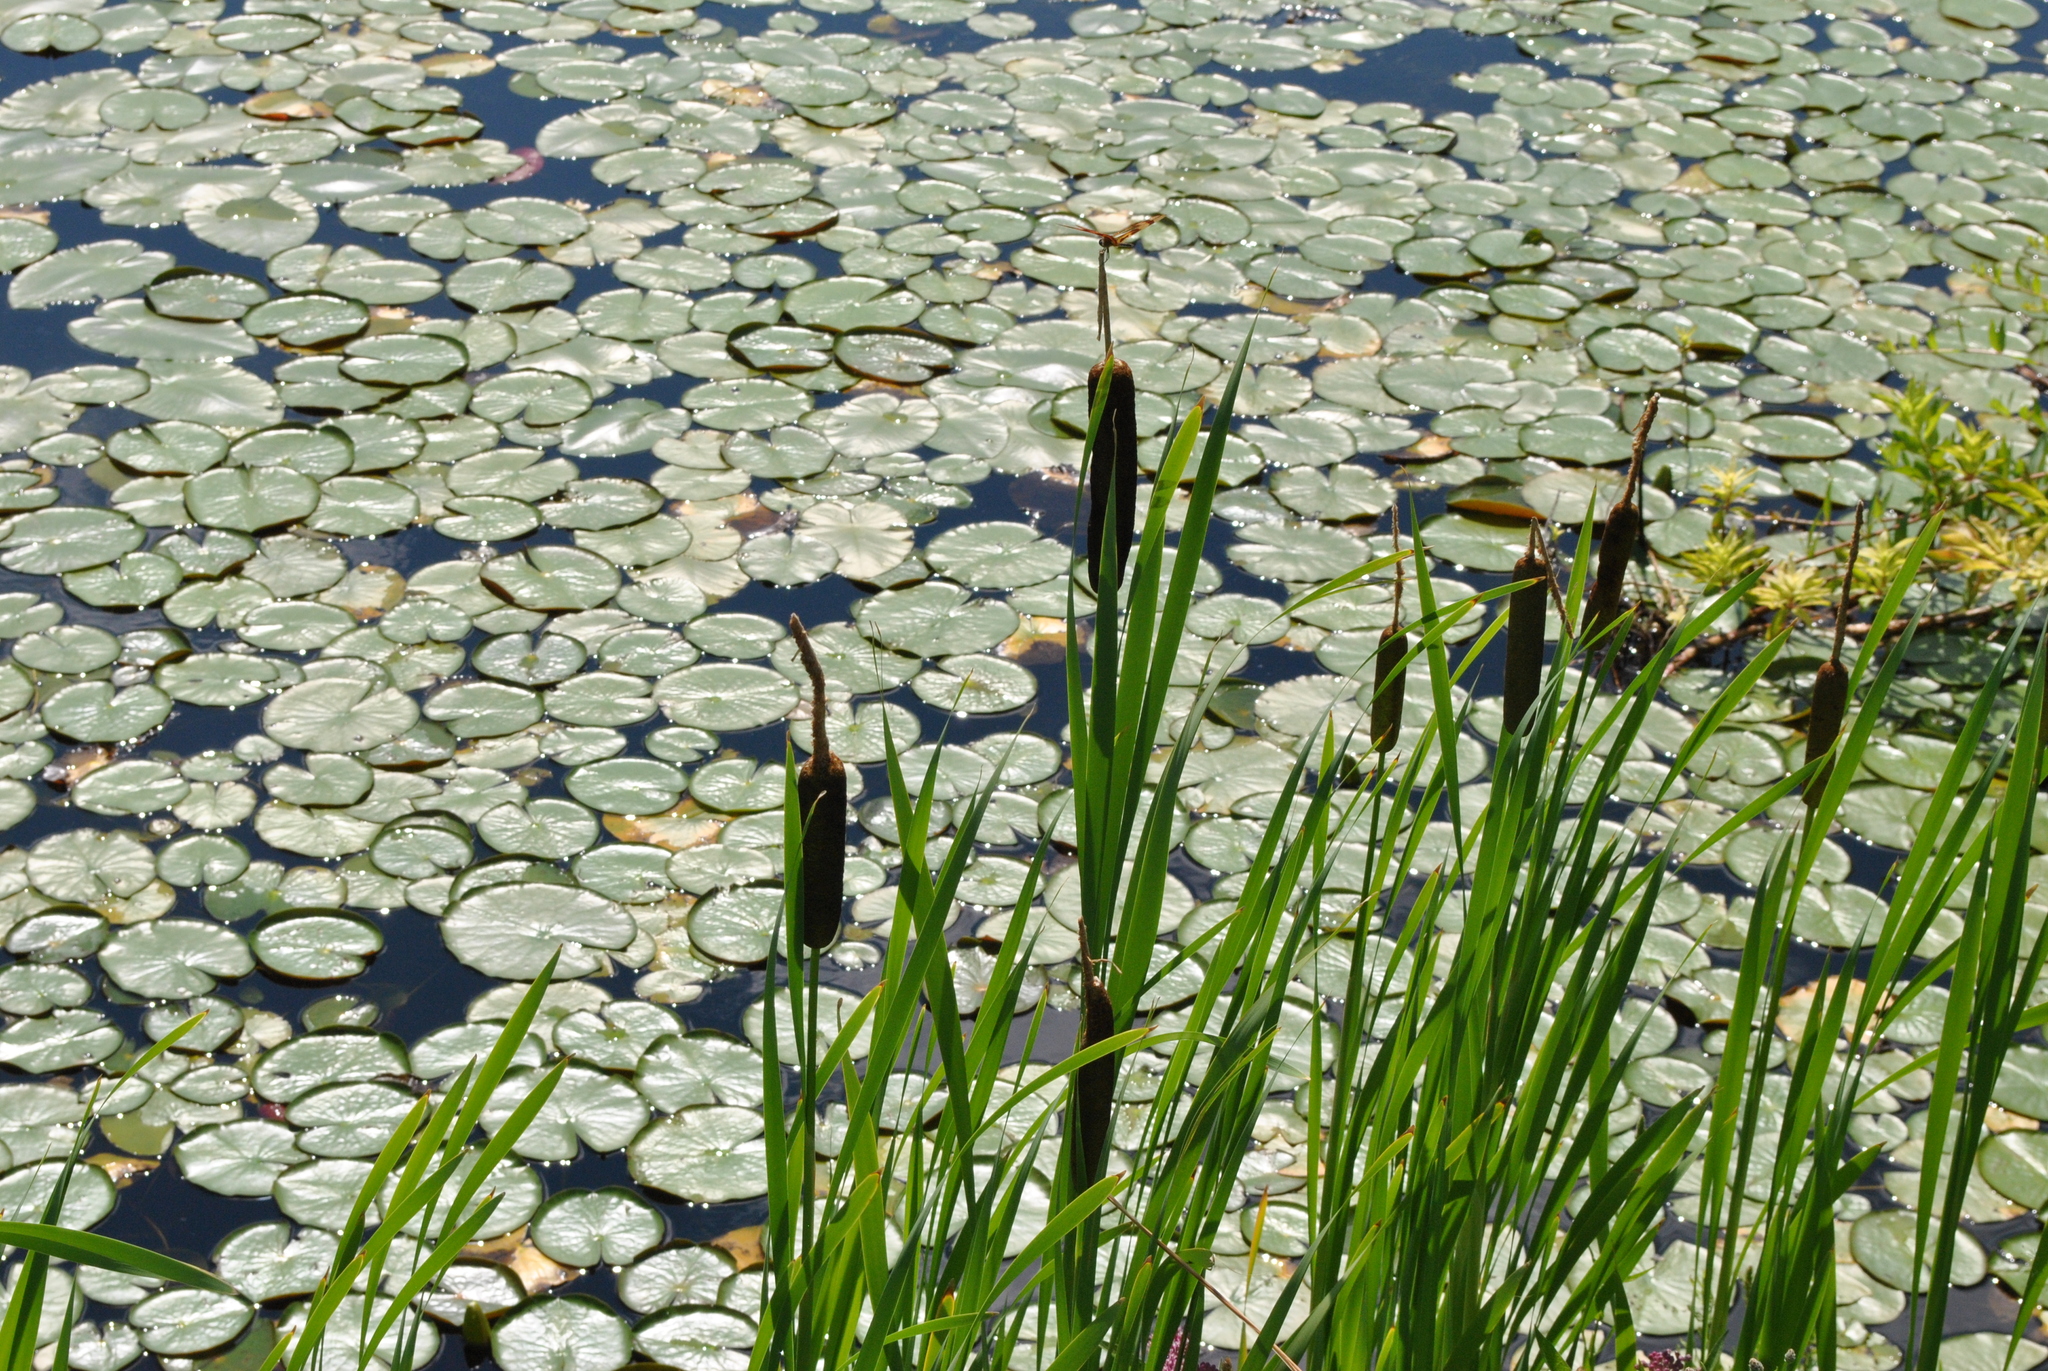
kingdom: Plantae
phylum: Tracheophyta
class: Magnoliopsida
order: Nymphaeales
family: Nymphaeaceae
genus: Nymphaea
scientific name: Nymphaea odorata
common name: Fragrant water-lily
